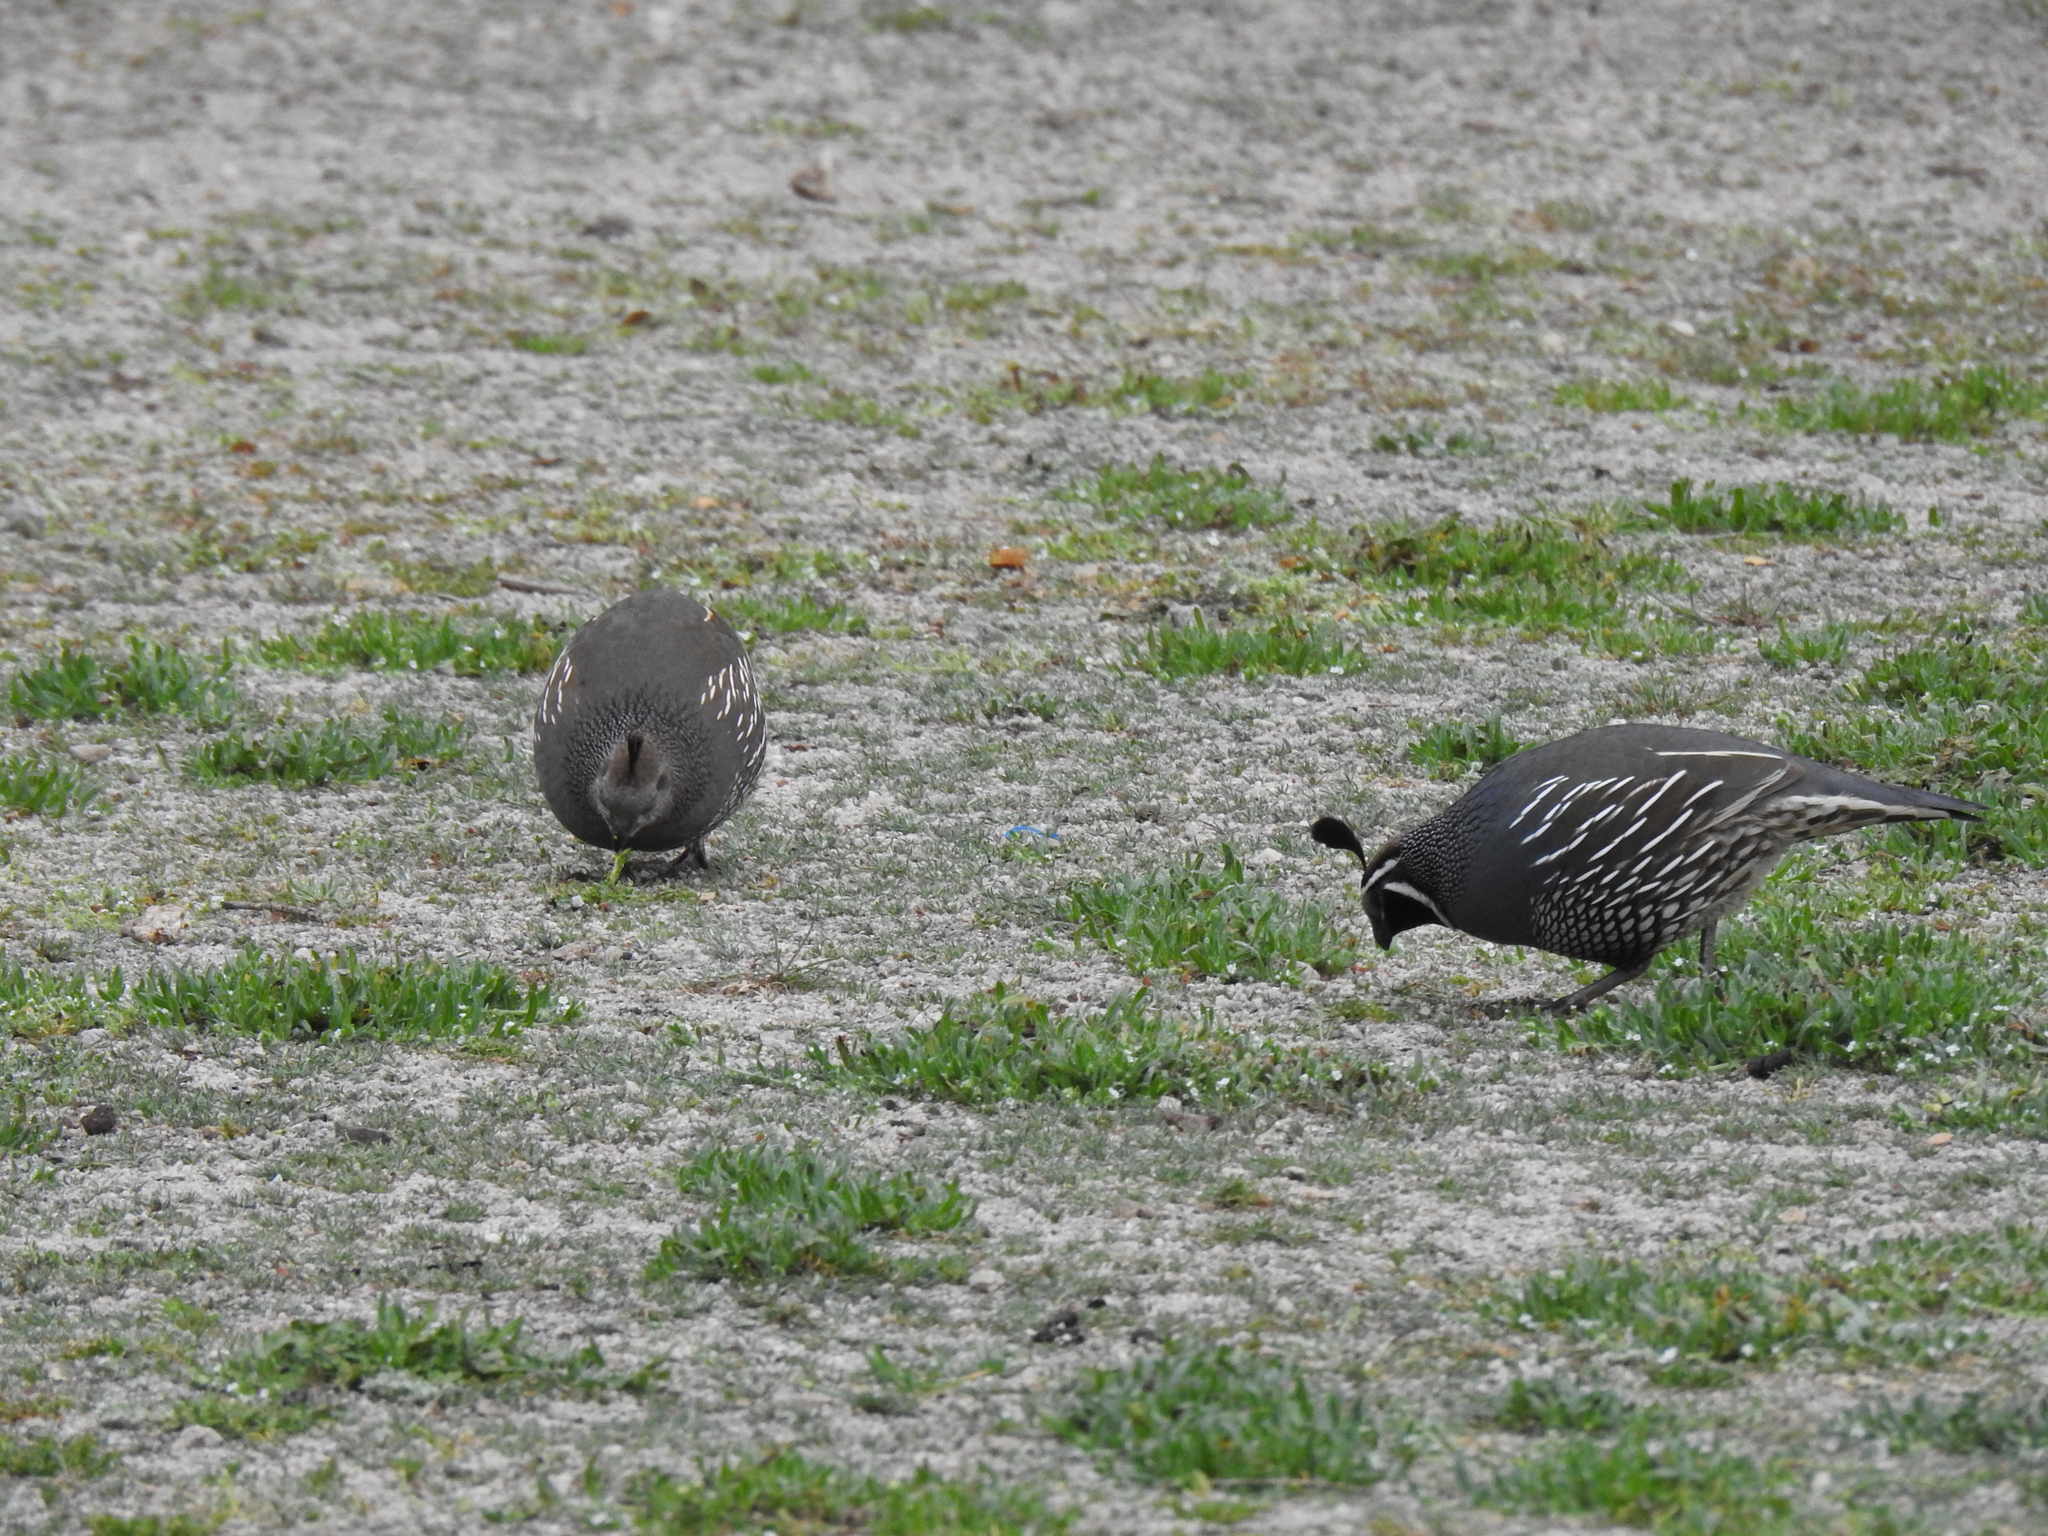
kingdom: Animalia
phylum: Chordata
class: Aves
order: Galliformes
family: Odontophoridae
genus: Callipepla
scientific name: Callipepla californica
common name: California quail
